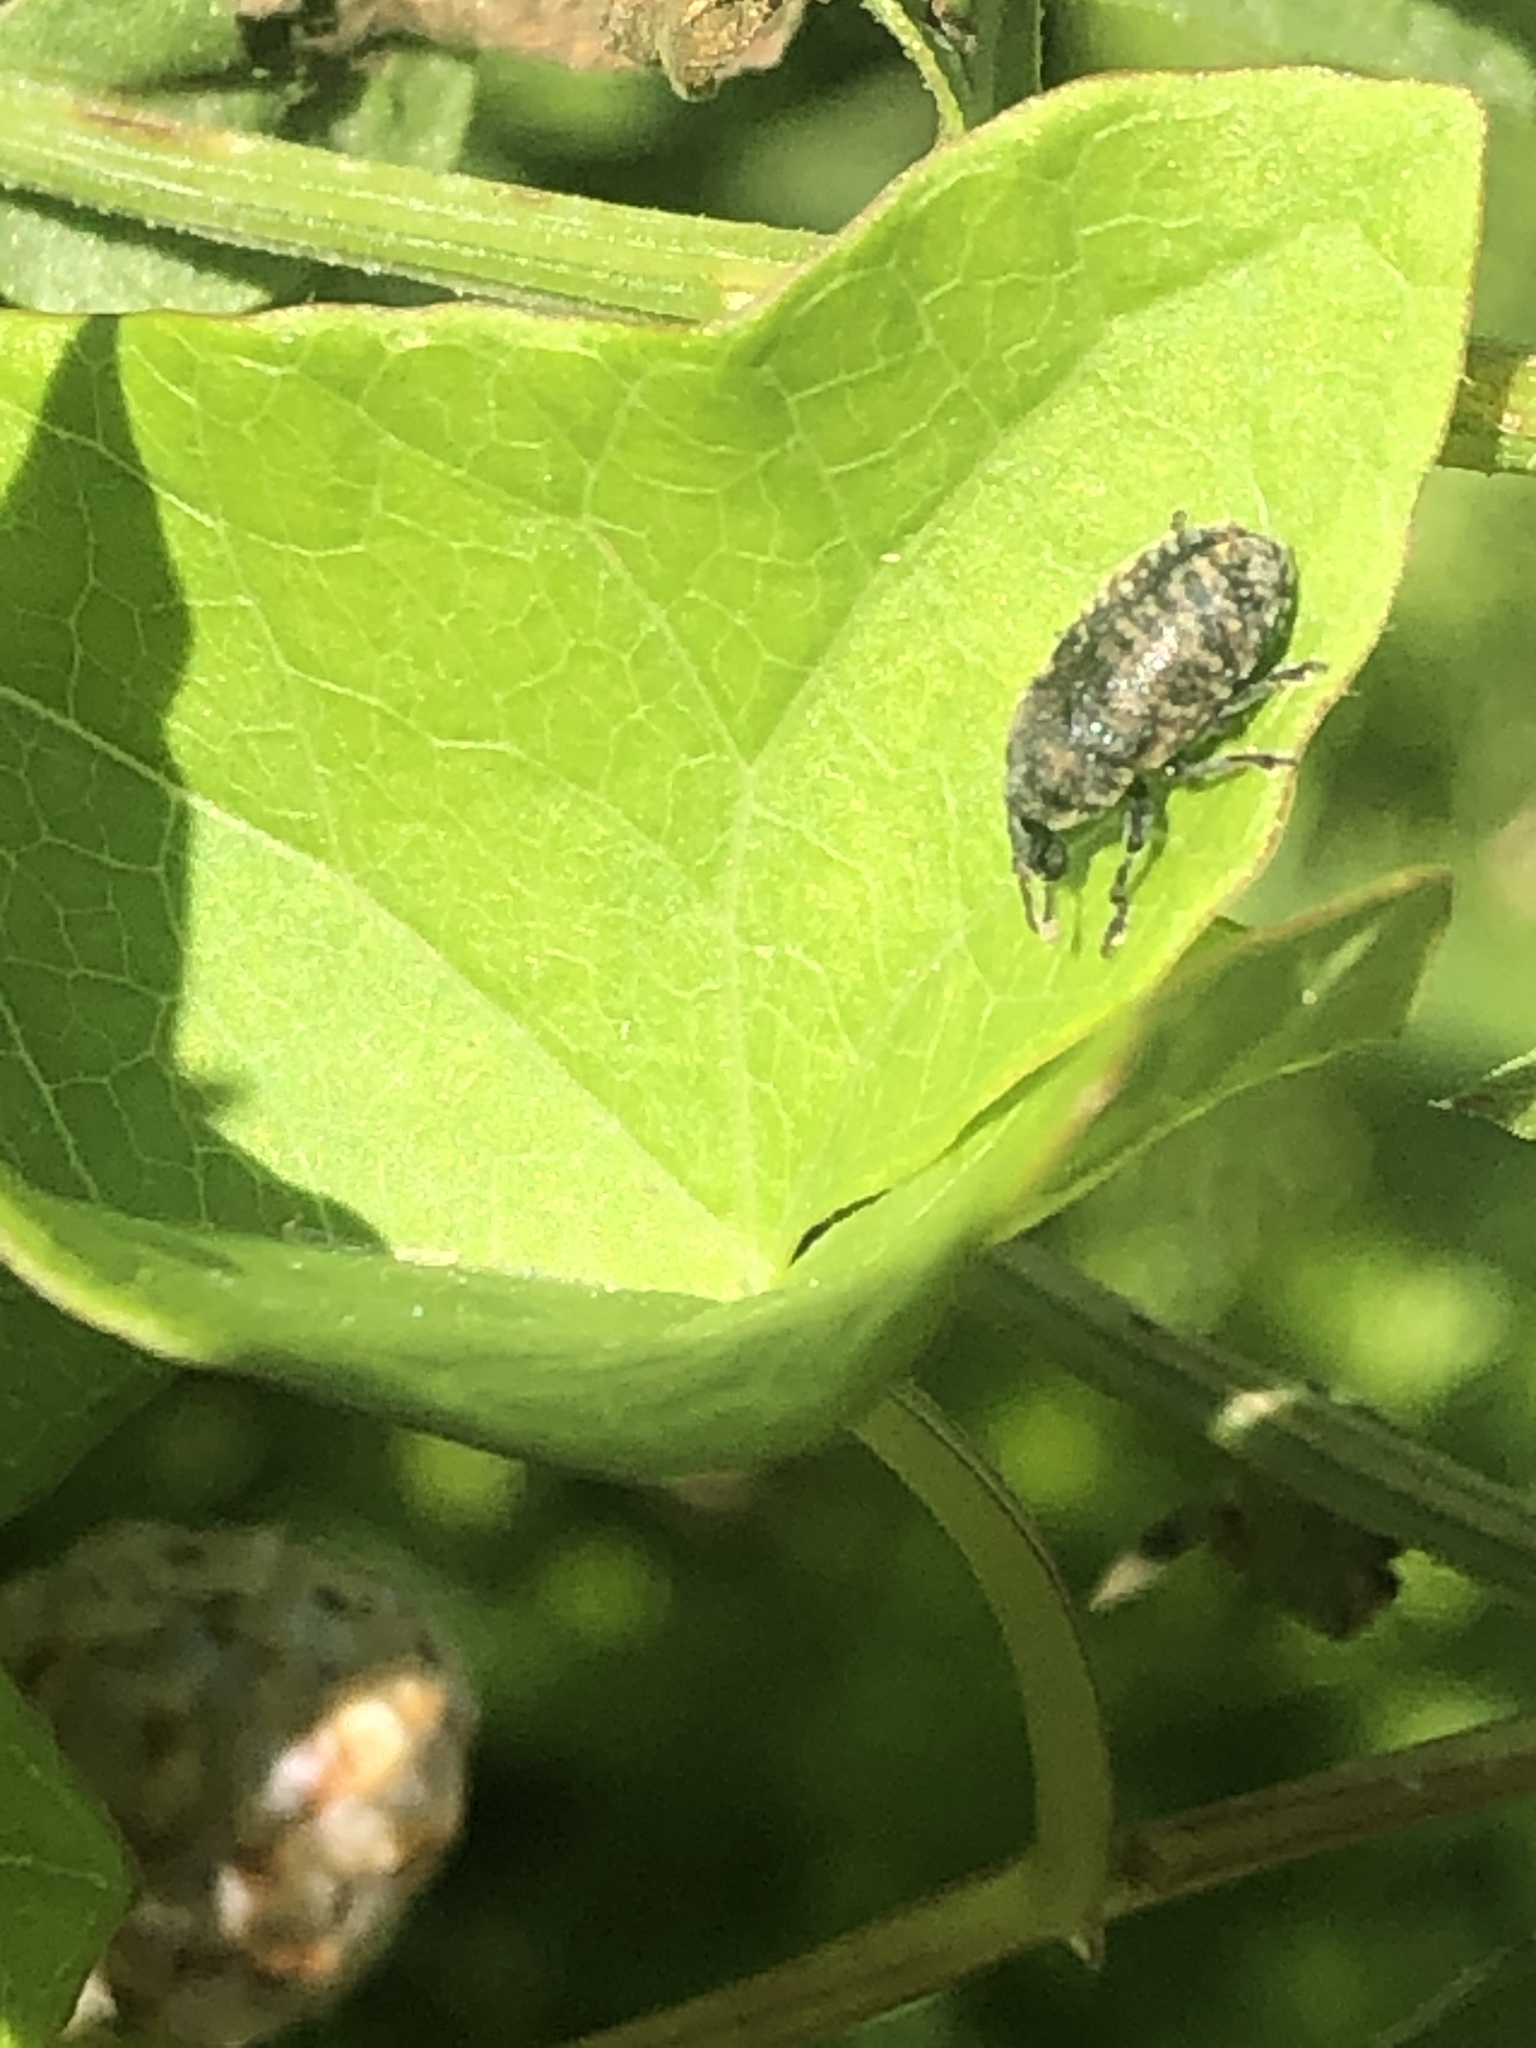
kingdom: Animalia
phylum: Arthropoda
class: Insecta
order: Coleoptera
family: Curculionidae
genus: Larinus
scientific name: Larinus obtusus
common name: Weevil
